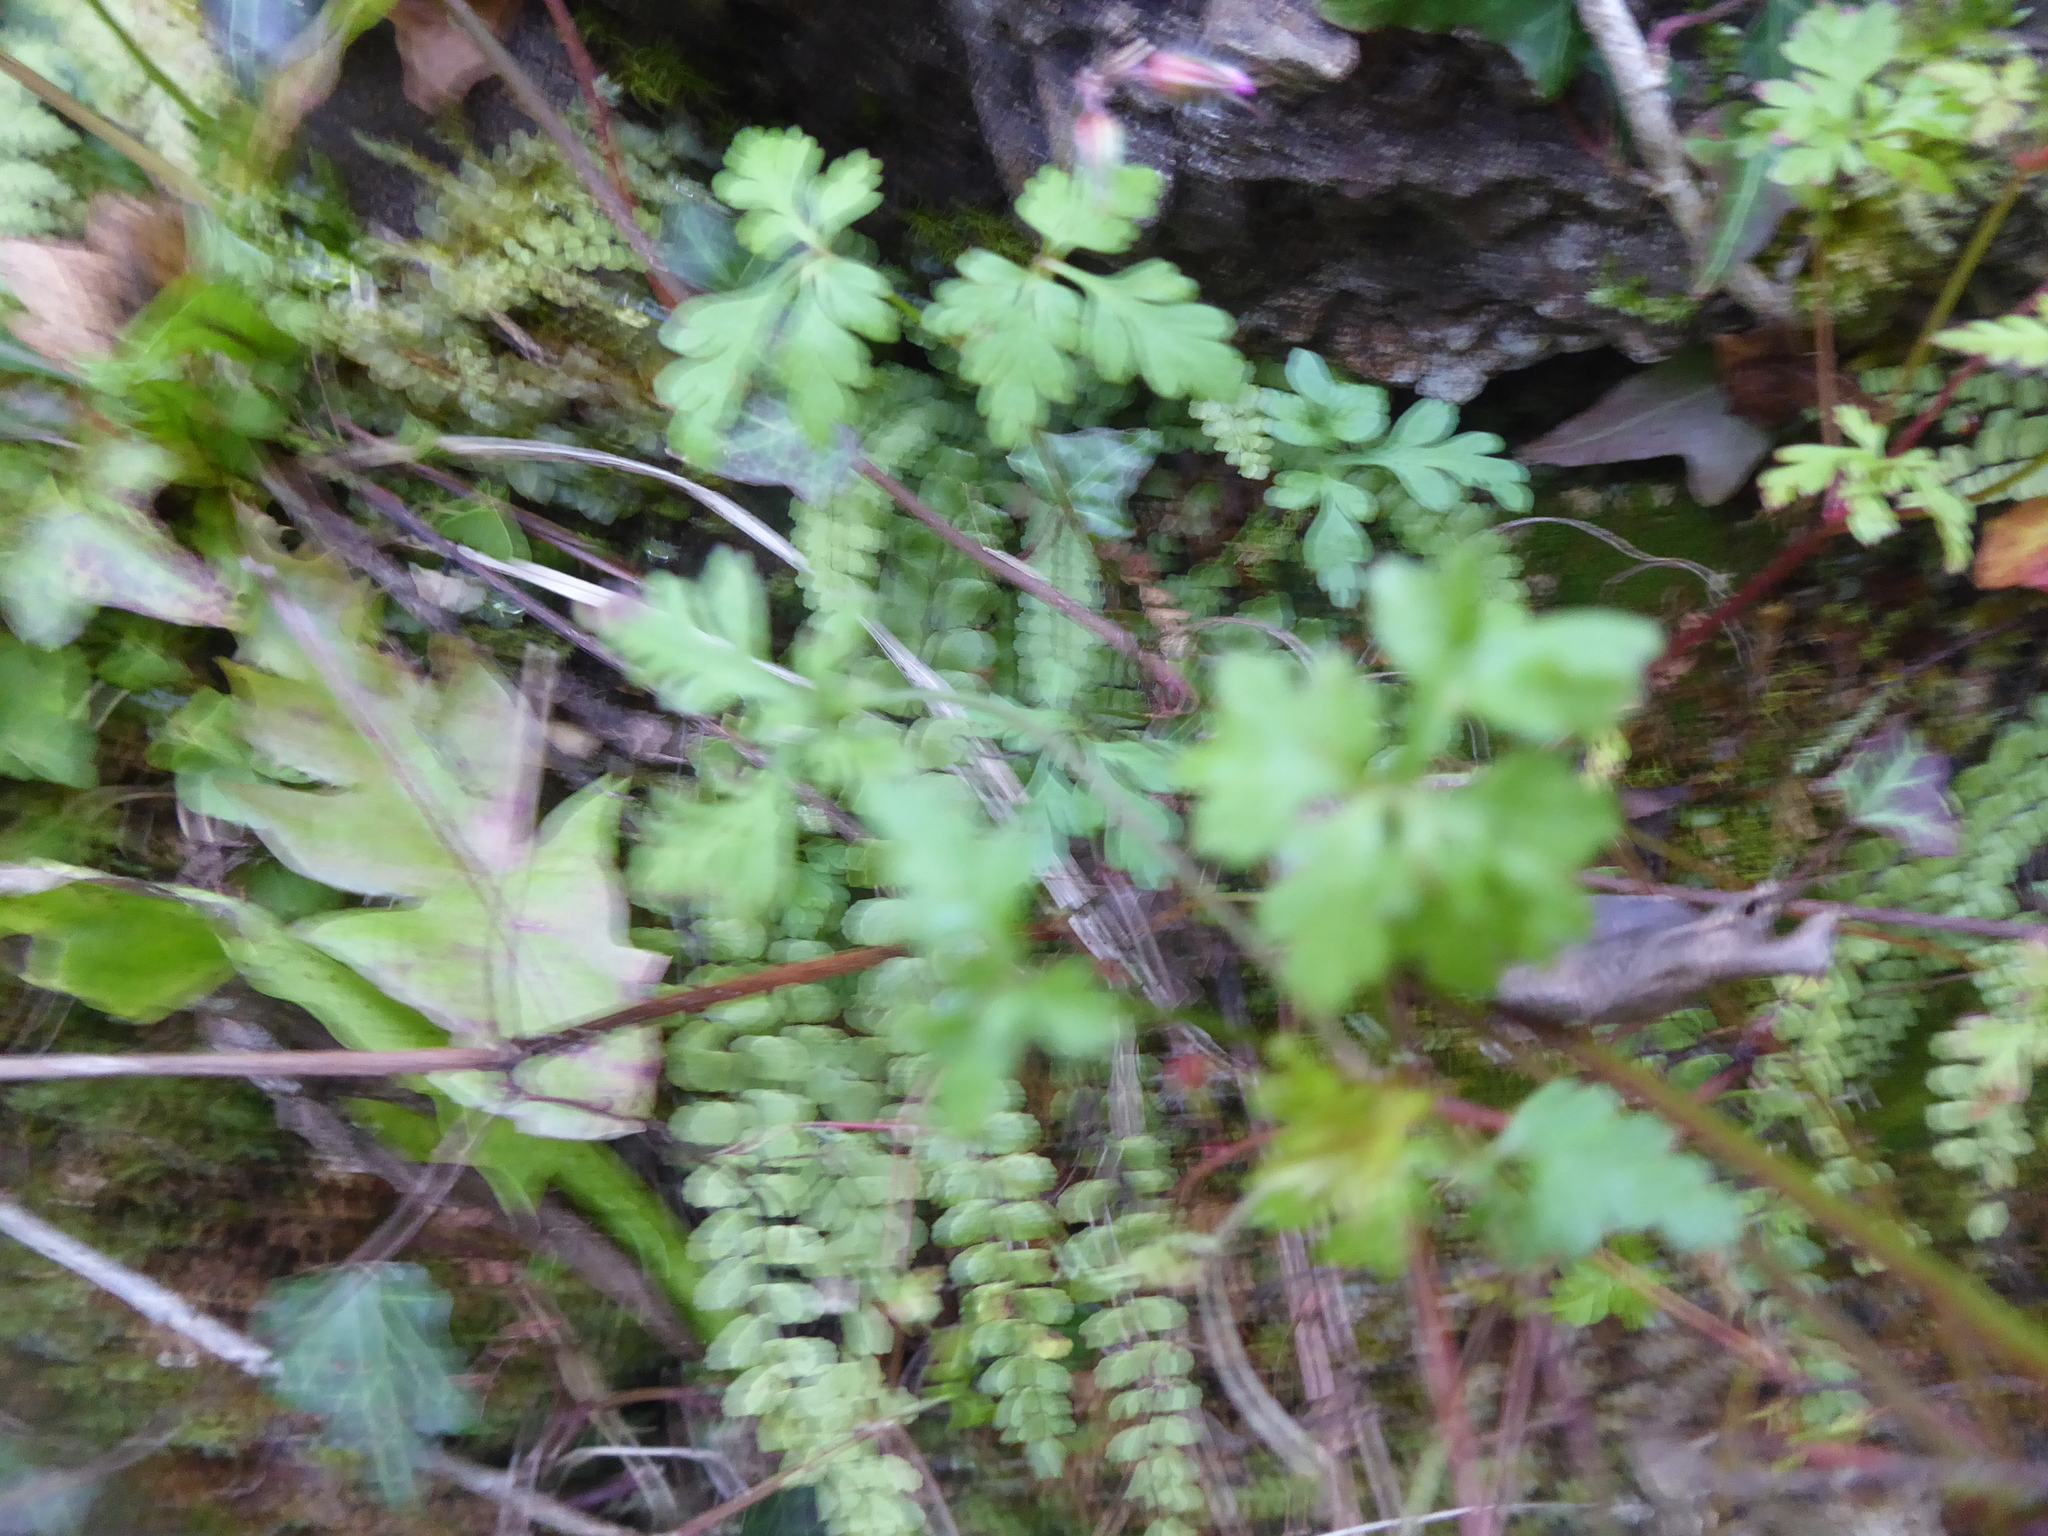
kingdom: Plantae
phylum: Tracheophyta
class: Magnoliopsida
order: Geraniales
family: Geraniaceae
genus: Geranium
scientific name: Geranium robertianum
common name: Herb-robert
